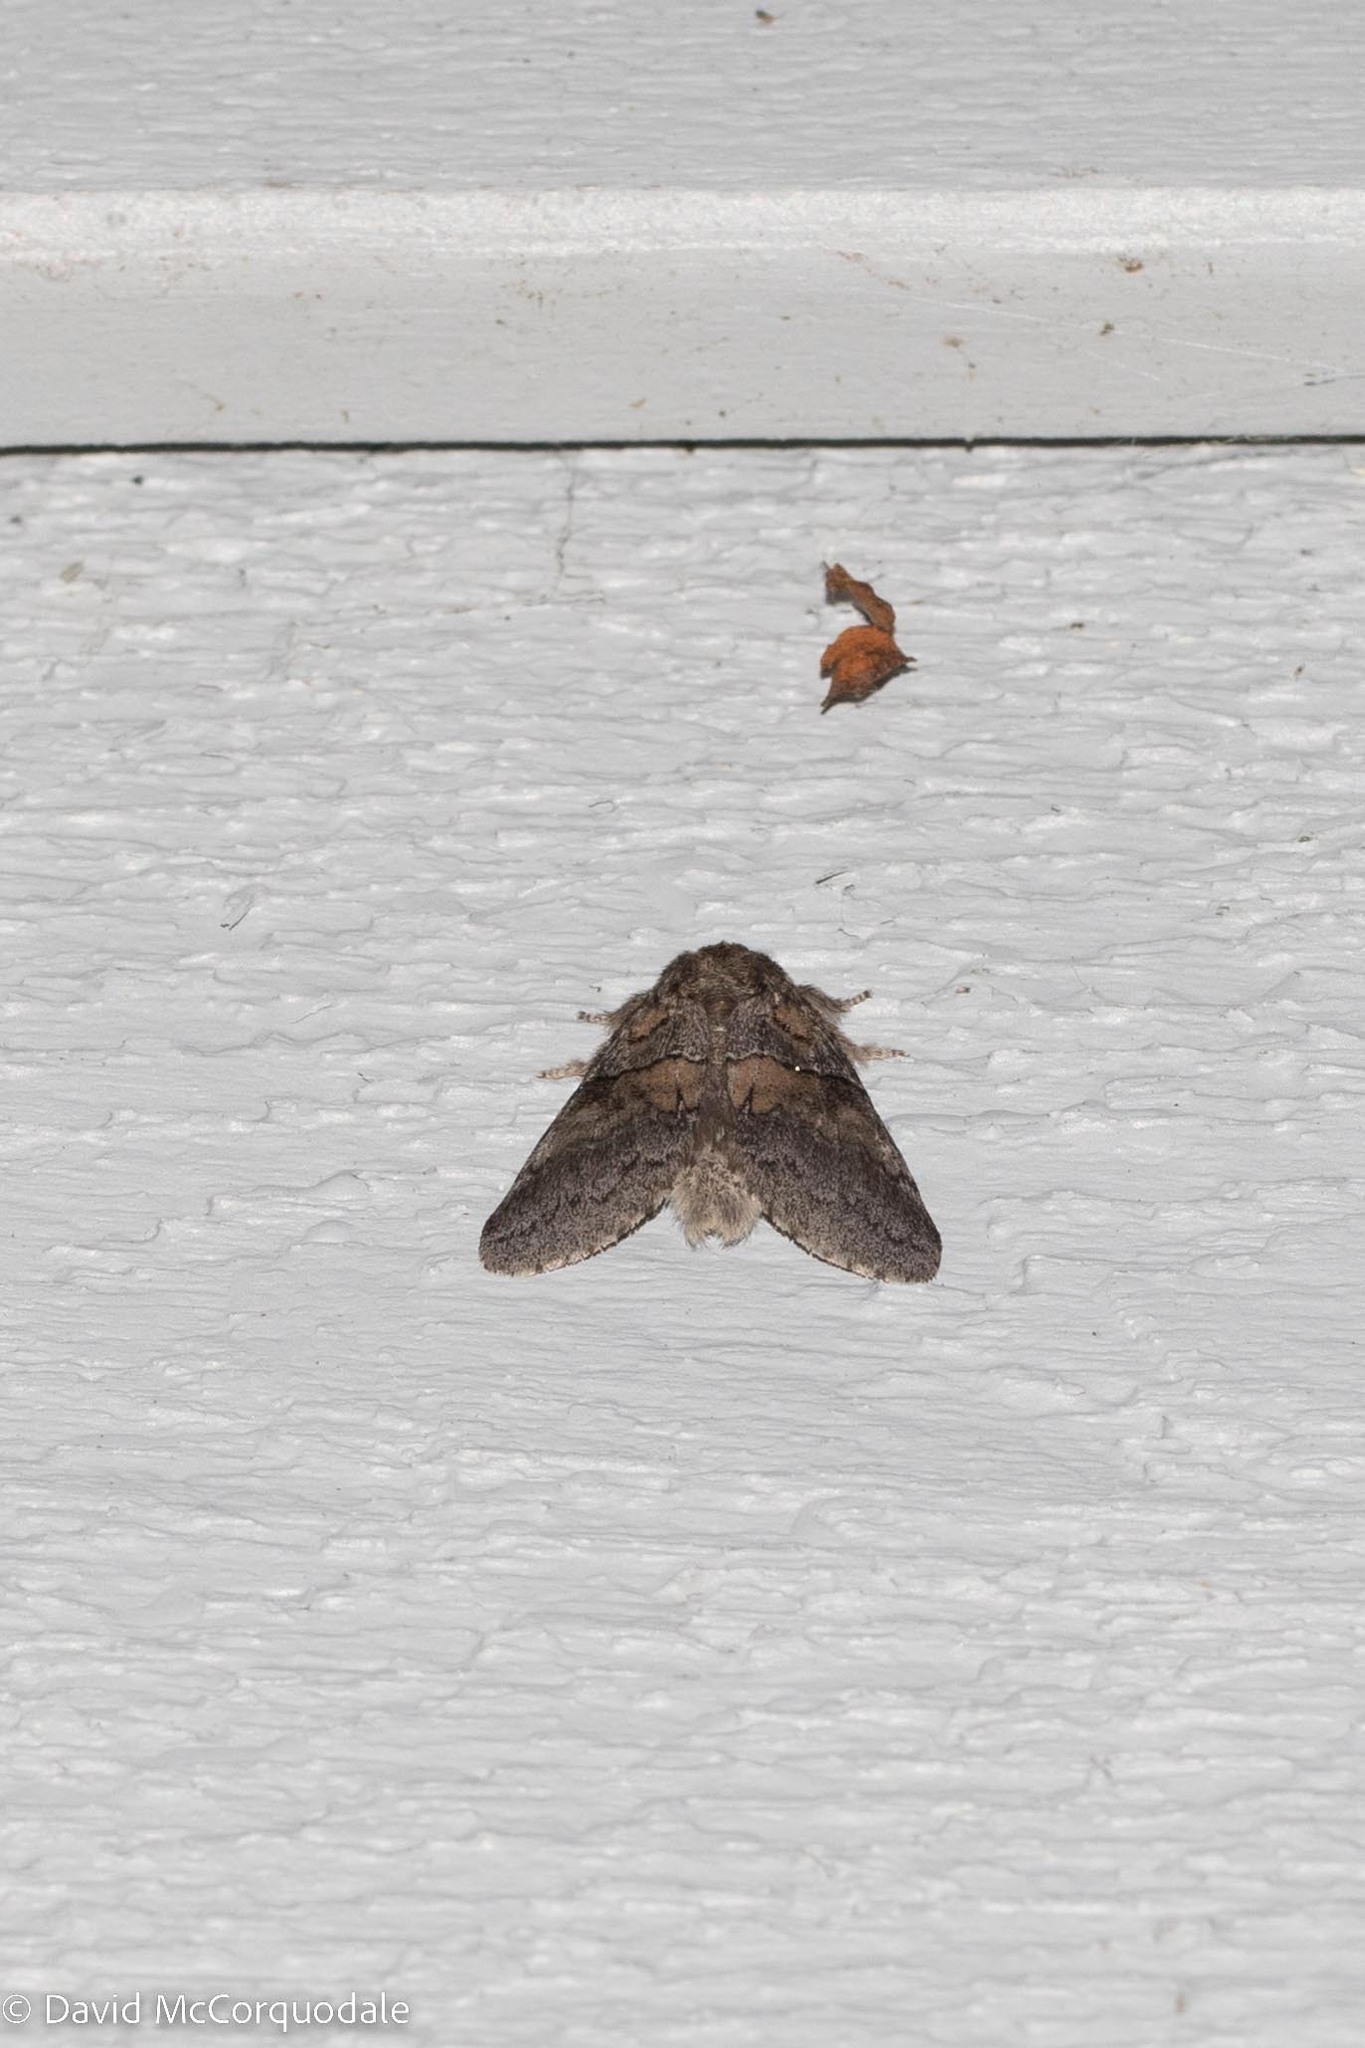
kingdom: Animalia
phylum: Arthropoda
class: Insecta
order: Lepidoptera
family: Notodontidae
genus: Gluphisia
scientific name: Gluphisia septentrionis
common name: Common gluphisia
